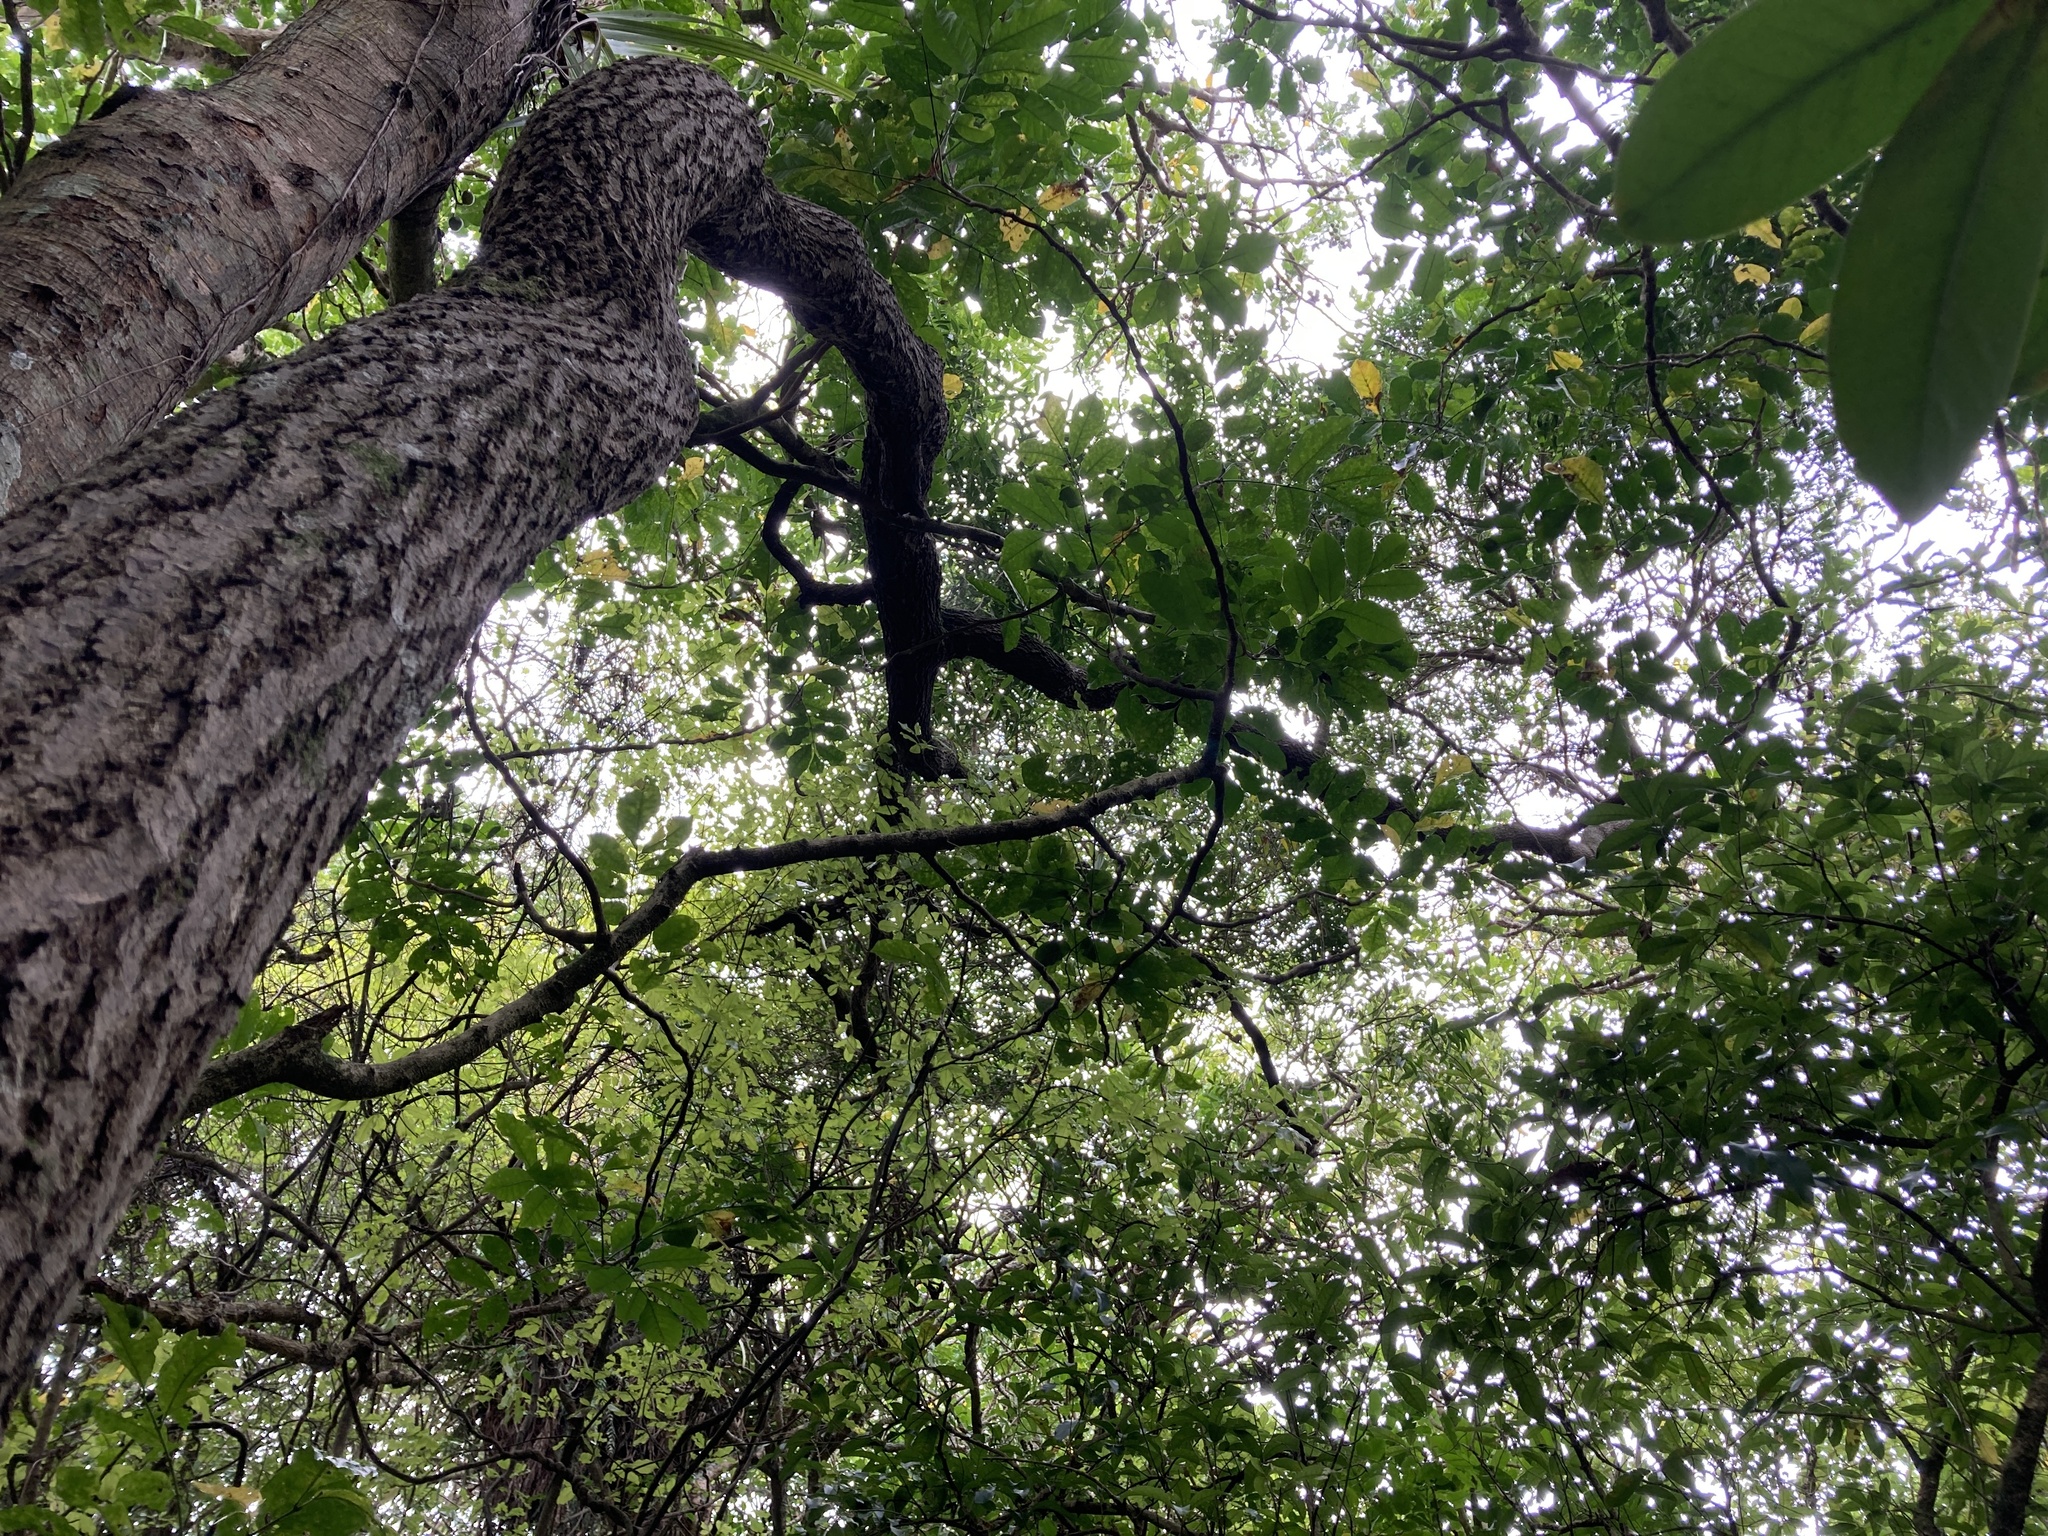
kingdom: Plantae
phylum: Tracheophyta
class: Magnoliopsida
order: Lamiales
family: Oleaceae
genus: Nestegis
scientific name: Nestegis lanceolata
